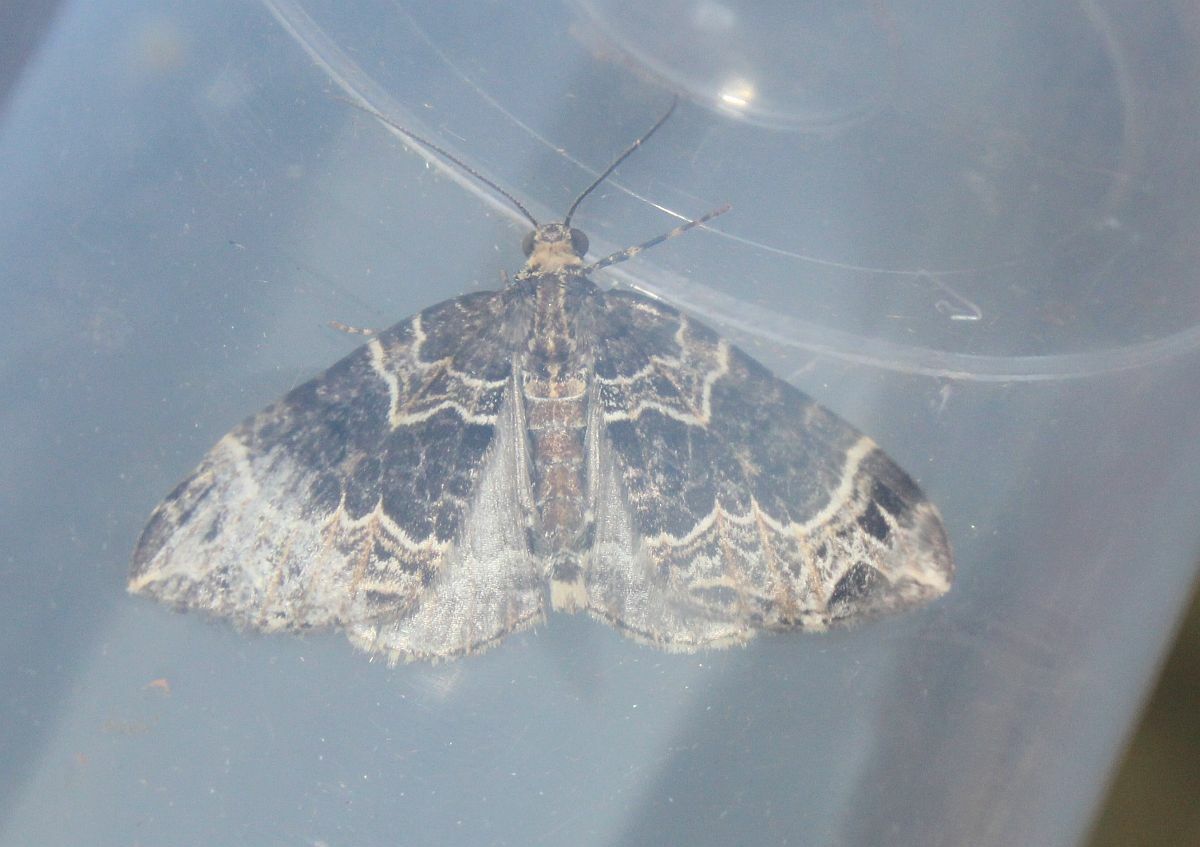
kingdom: Animalia
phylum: Arthropoda
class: Insecta
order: Lepidoptera
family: Geometridae
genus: Ecliptopera
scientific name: Ecliptopera silaceata
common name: Small phoenix
